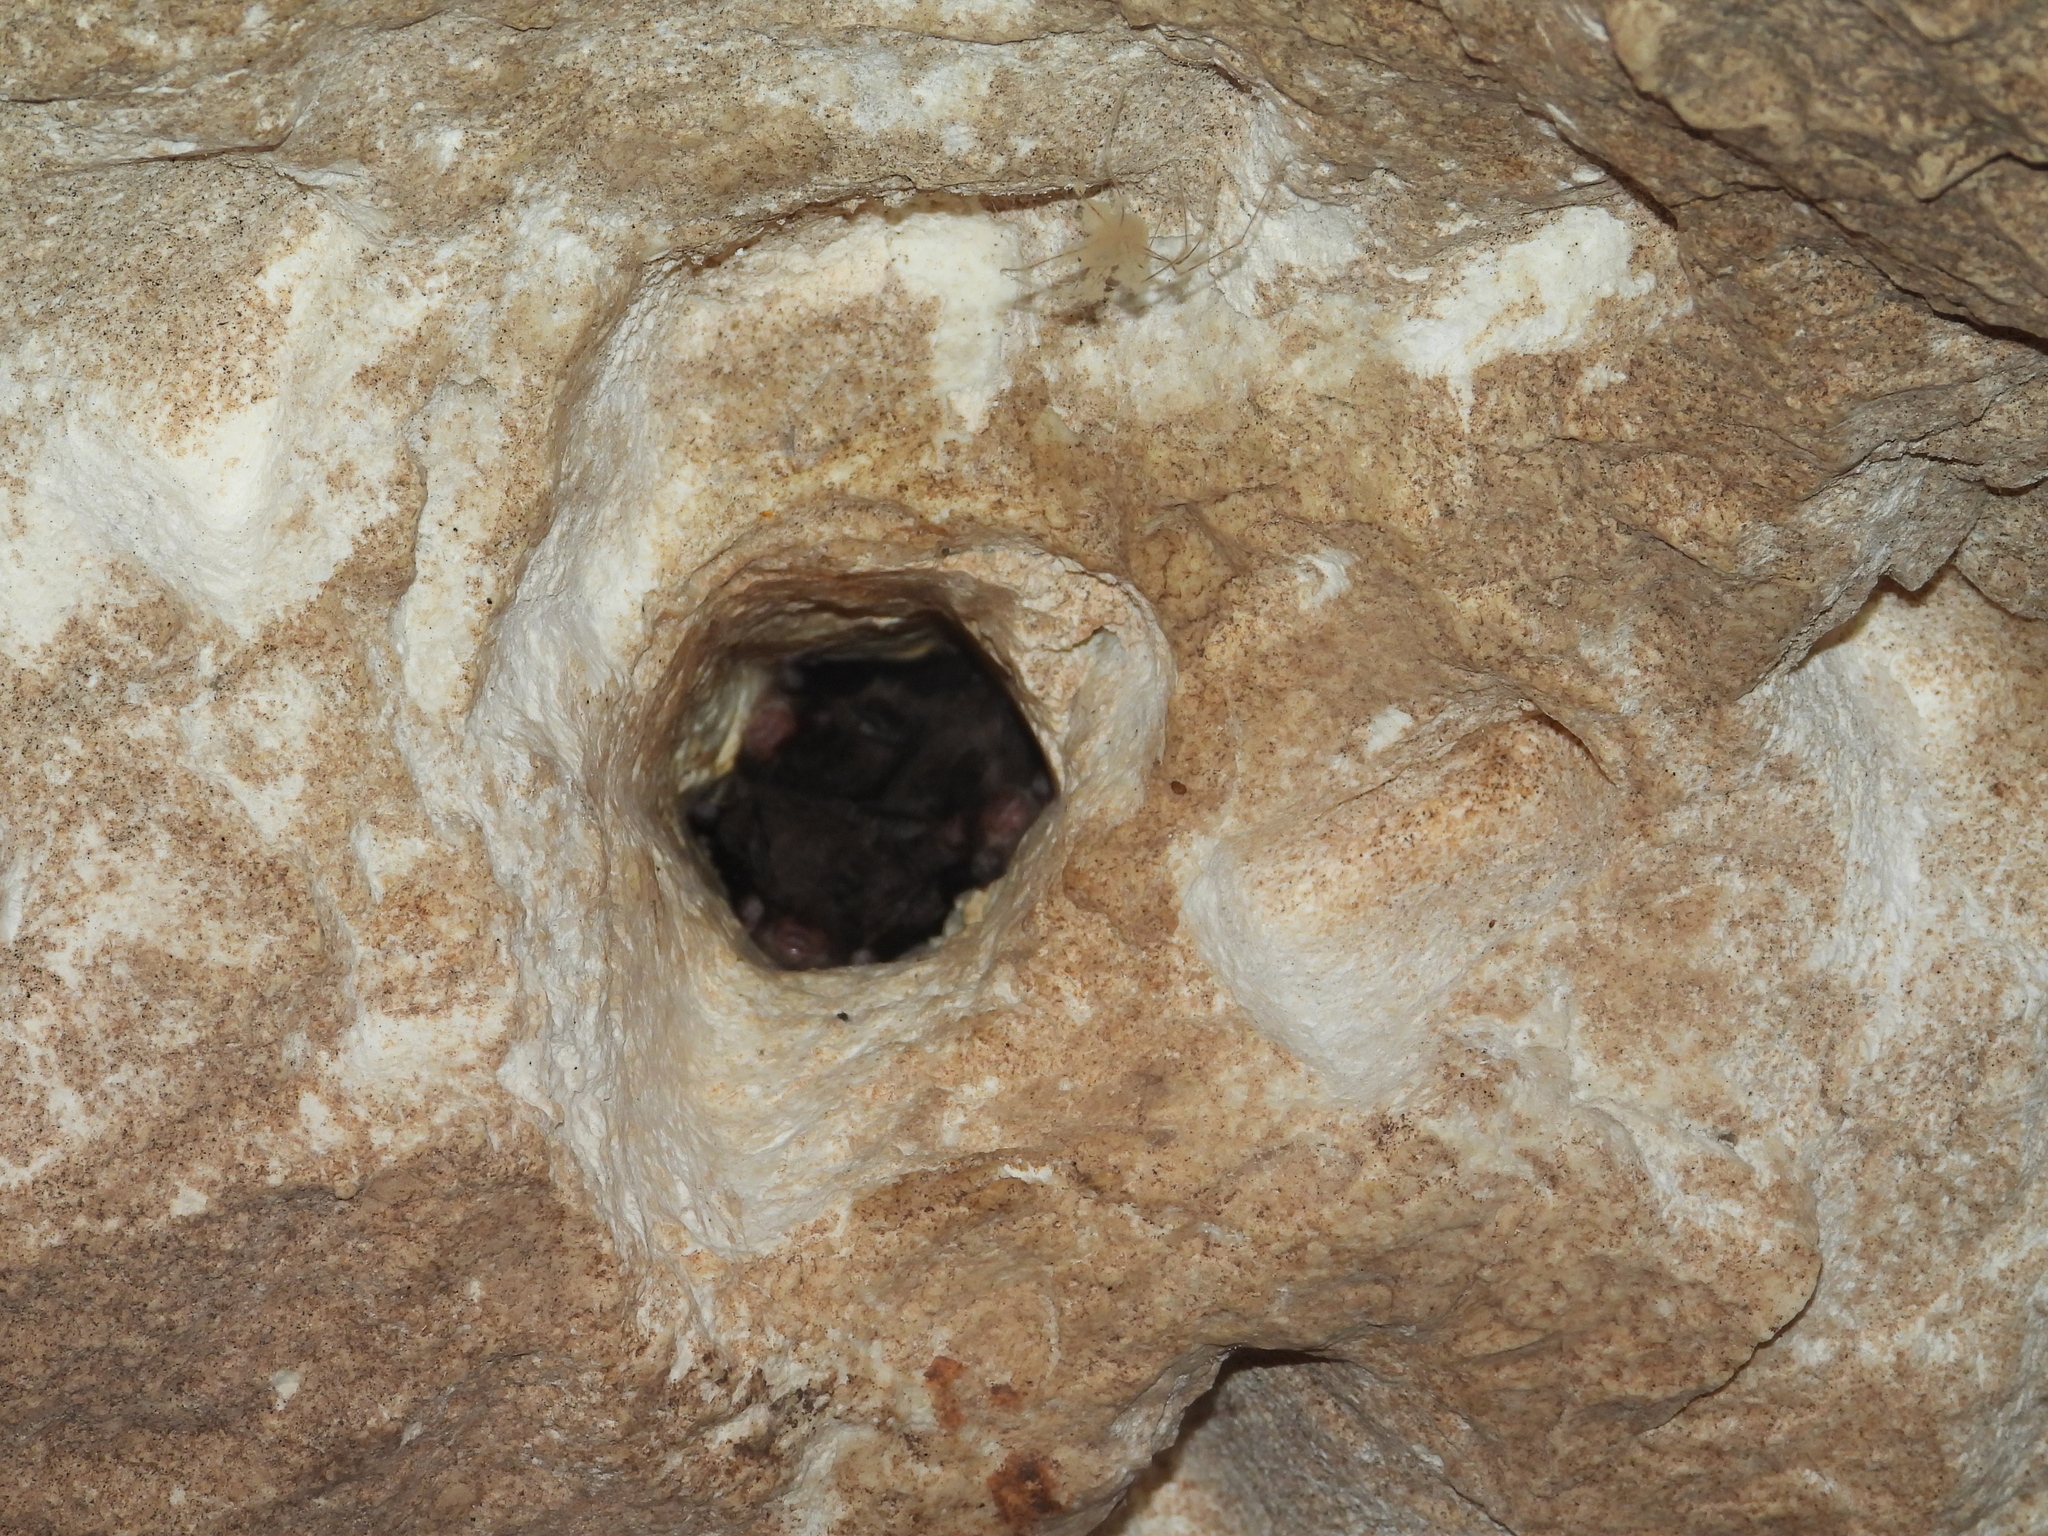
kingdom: Animalia
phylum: Chordata
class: Mammalia
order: Chiroptera
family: Vespertilionidae
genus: Myotis
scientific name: Myotis pilosatibialis
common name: Northern hairy-legged myotis
